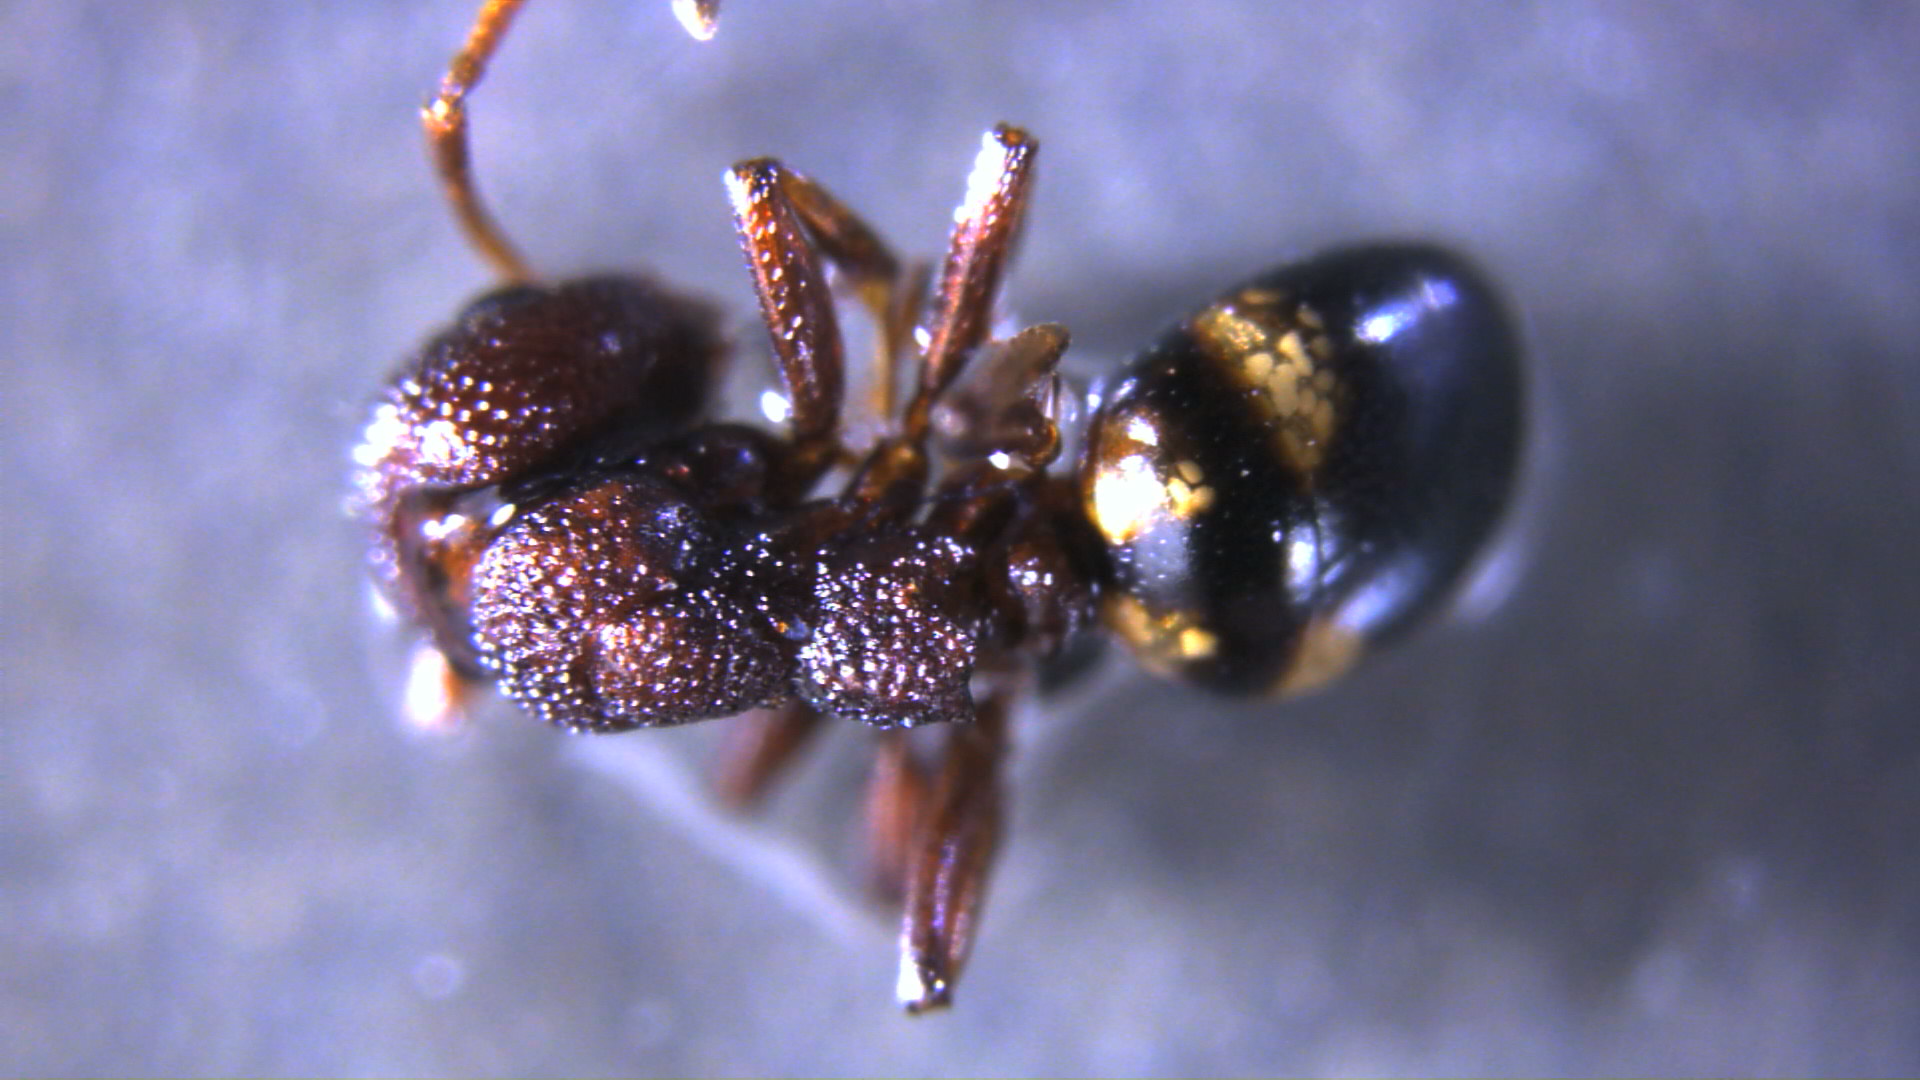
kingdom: Animalia
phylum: Arthropoda
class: Insecta
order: Hymenoptera
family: Formicidae
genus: Dolichoderus
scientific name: Dolichoderus sibiricus
